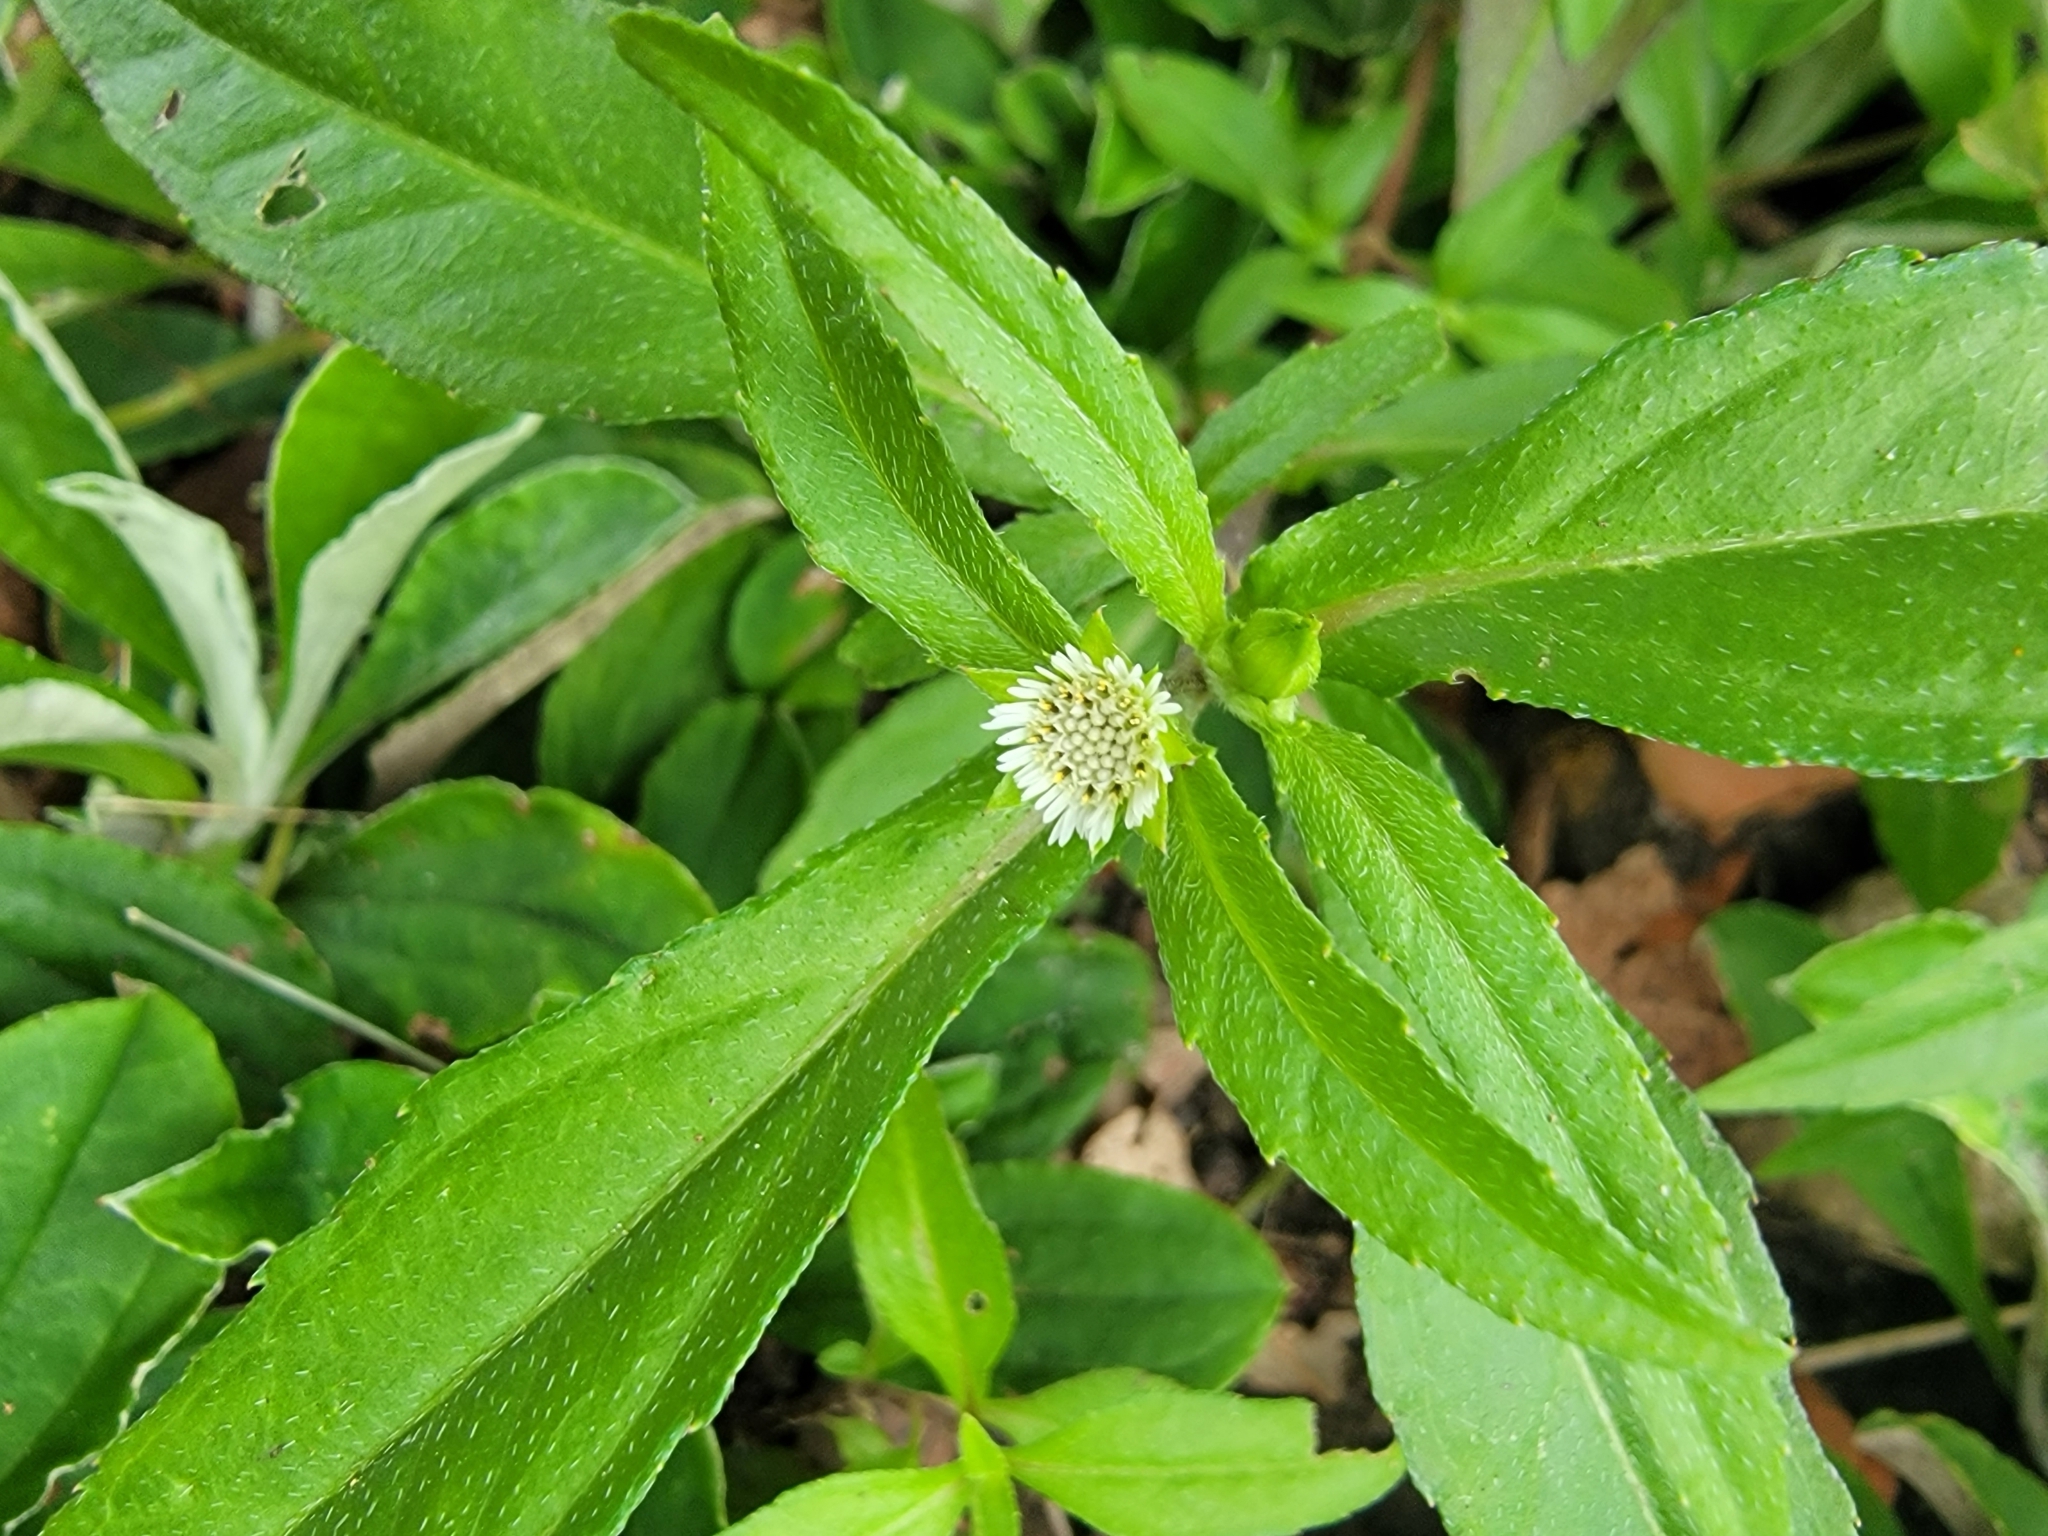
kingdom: Plantae
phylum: Tracheophyta
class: Magnoliopsida
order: Asterales
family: Asteraceae
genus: Eclipta
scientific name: Eclipta prostrata
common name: False daisy
